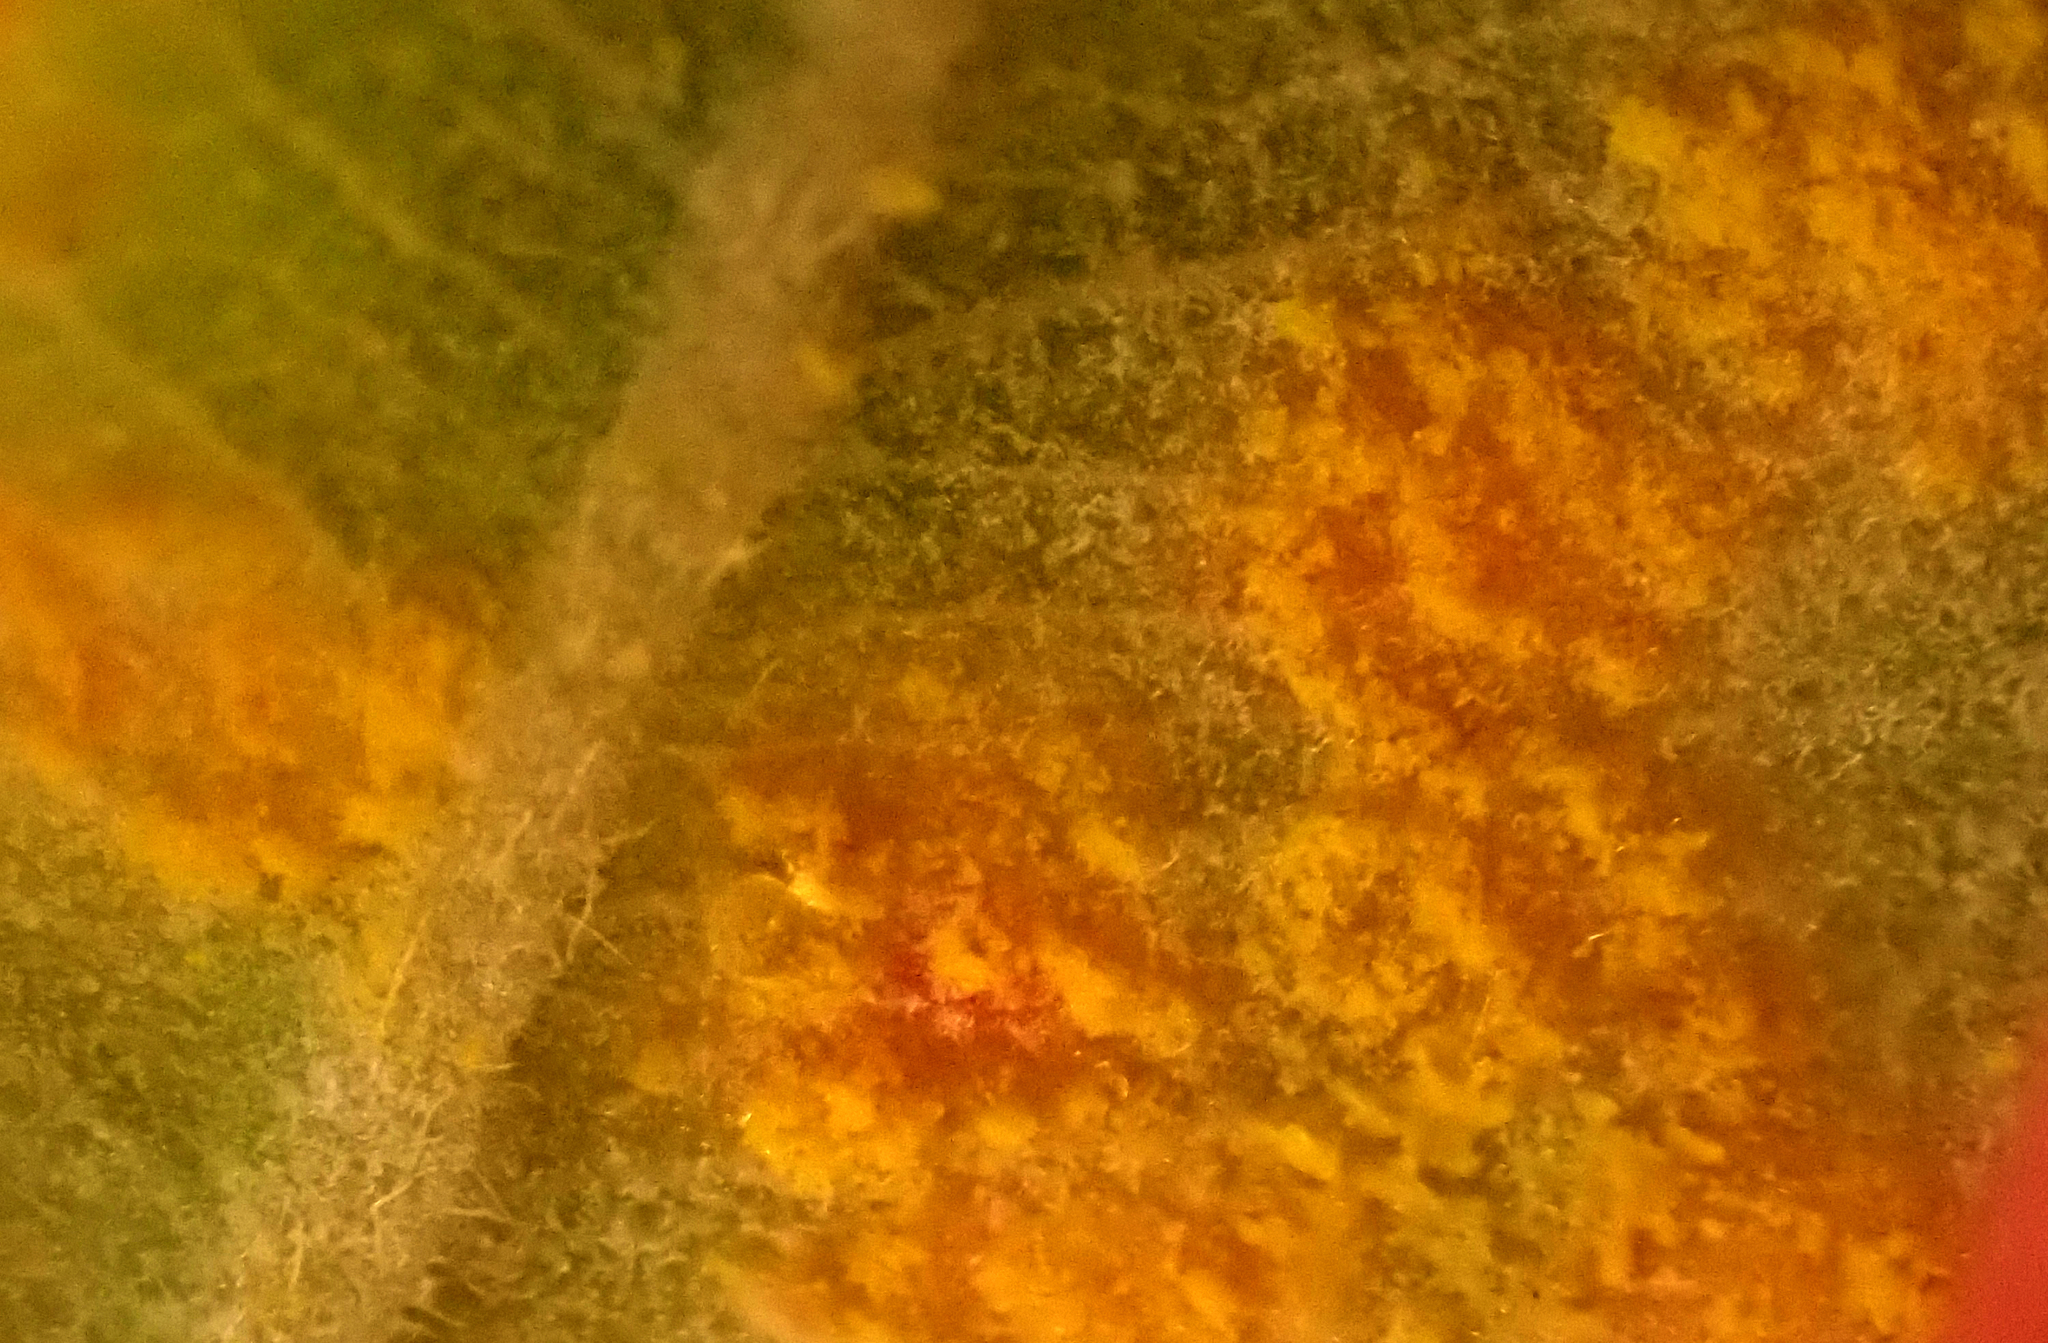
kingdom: Fungi
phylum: Basidiomycota
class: Pucciniomycetes
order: Pucciniales
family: Sphaerophragmiaceae
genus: Austropuccinia
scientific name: Austropuccinia psidii
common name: Myrtle rust
